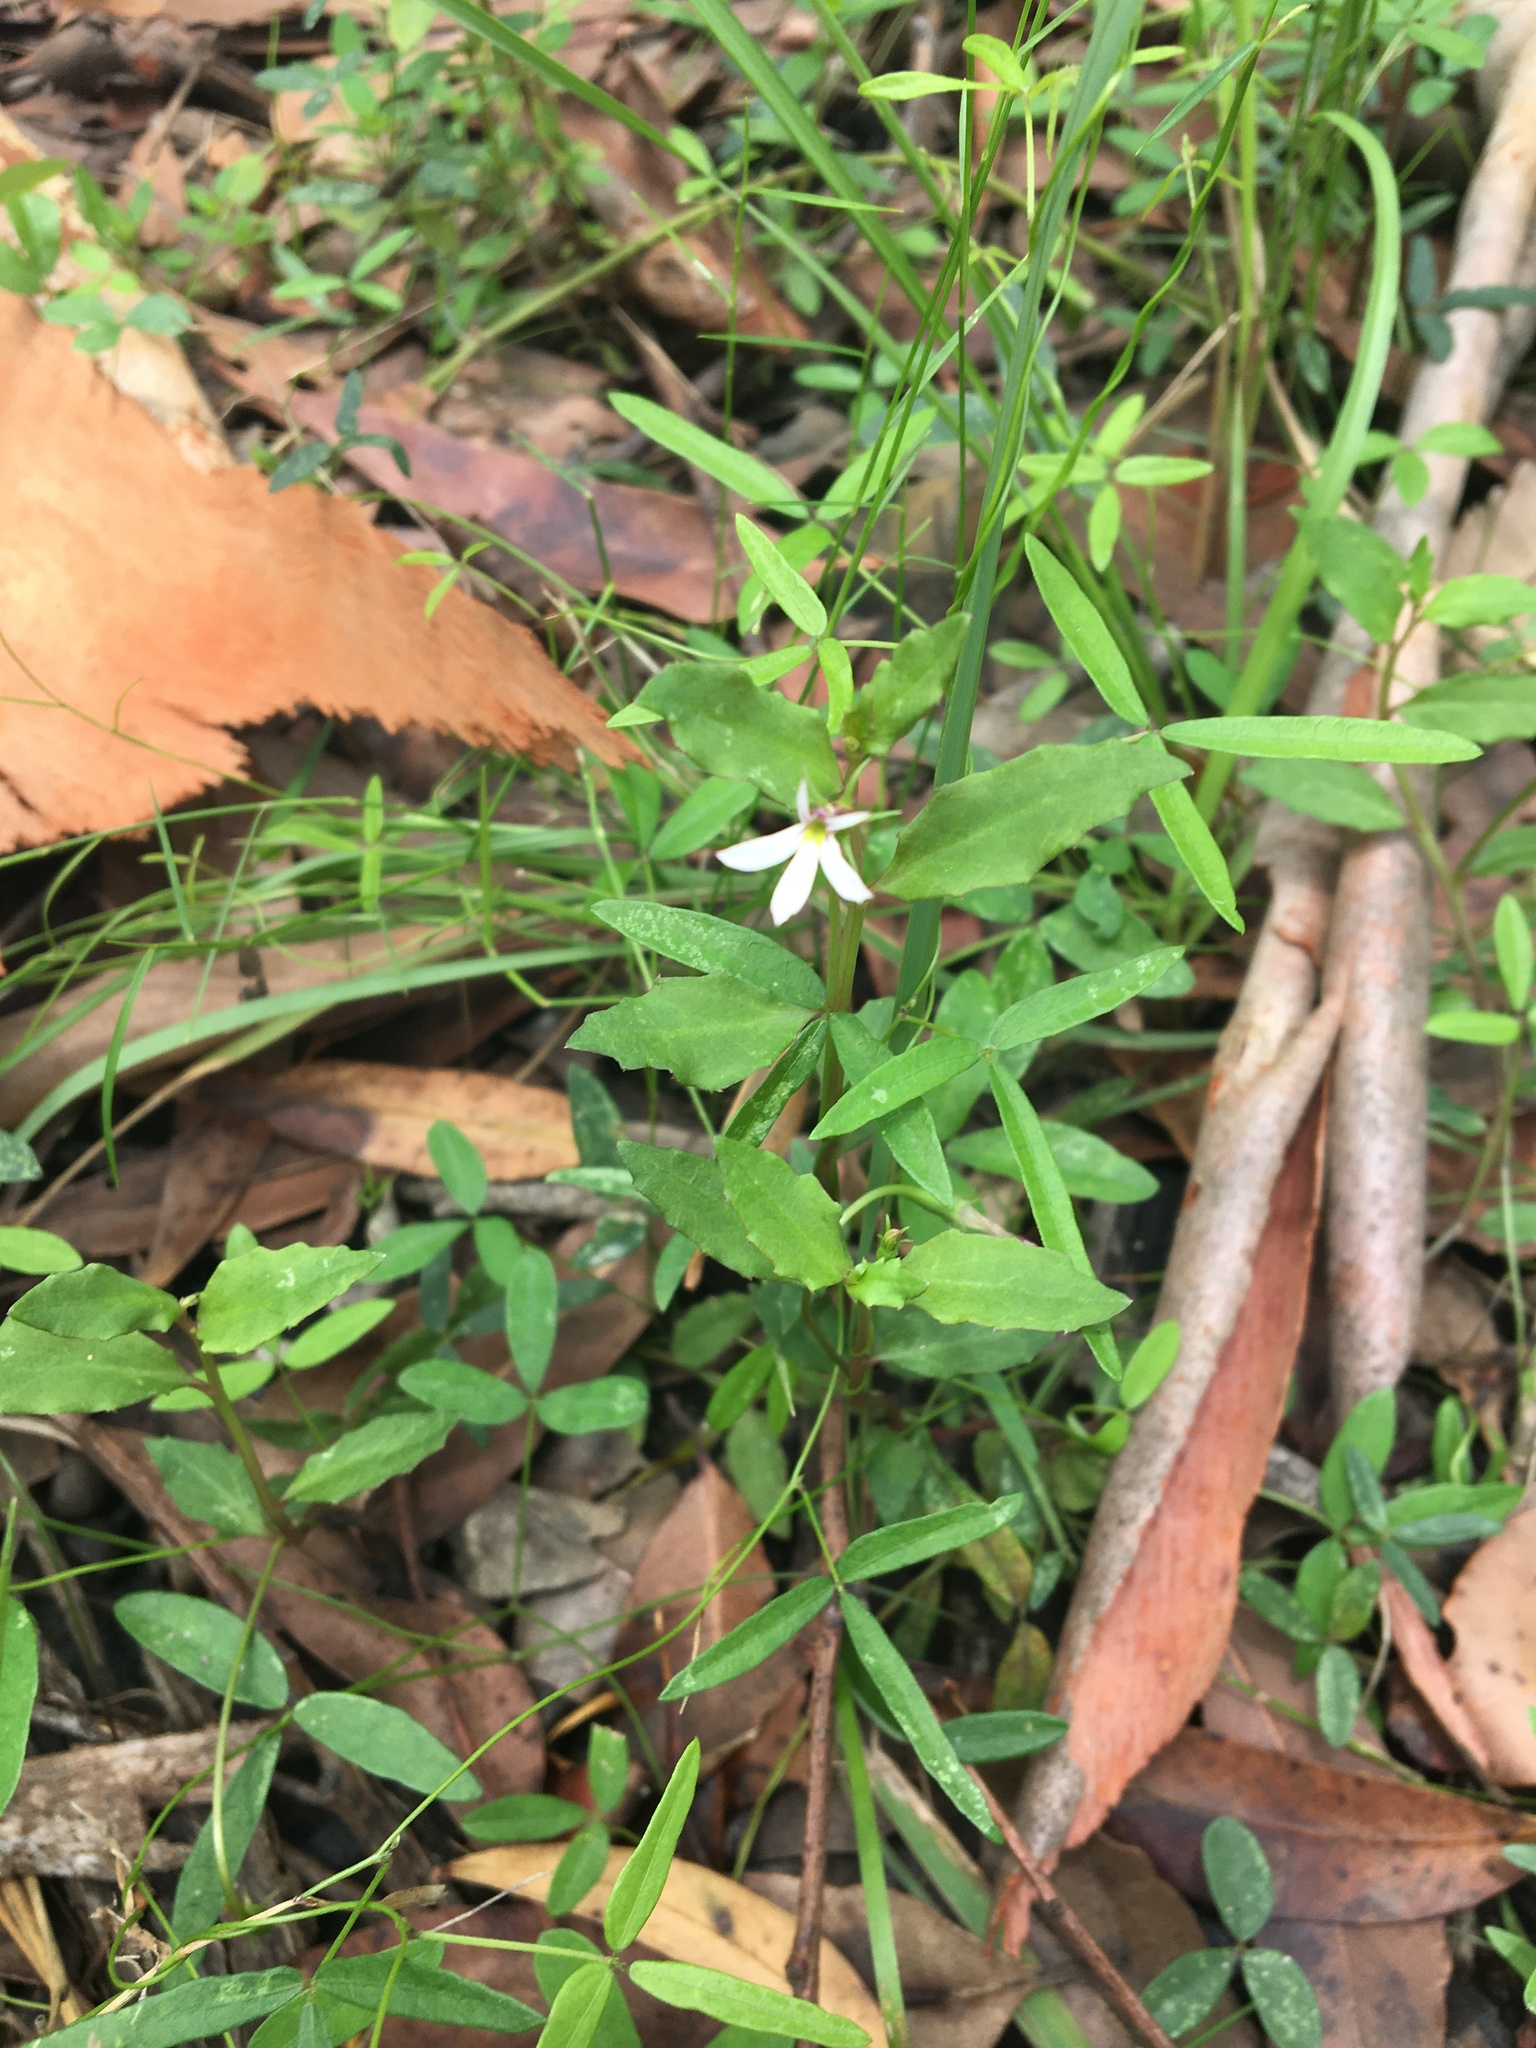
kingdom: Plantae
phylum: Tracheophyta
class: Magnoliopsida
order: Asterales
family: Campanulaceae
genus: Lobelia
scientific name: Lobelia purpurascens
